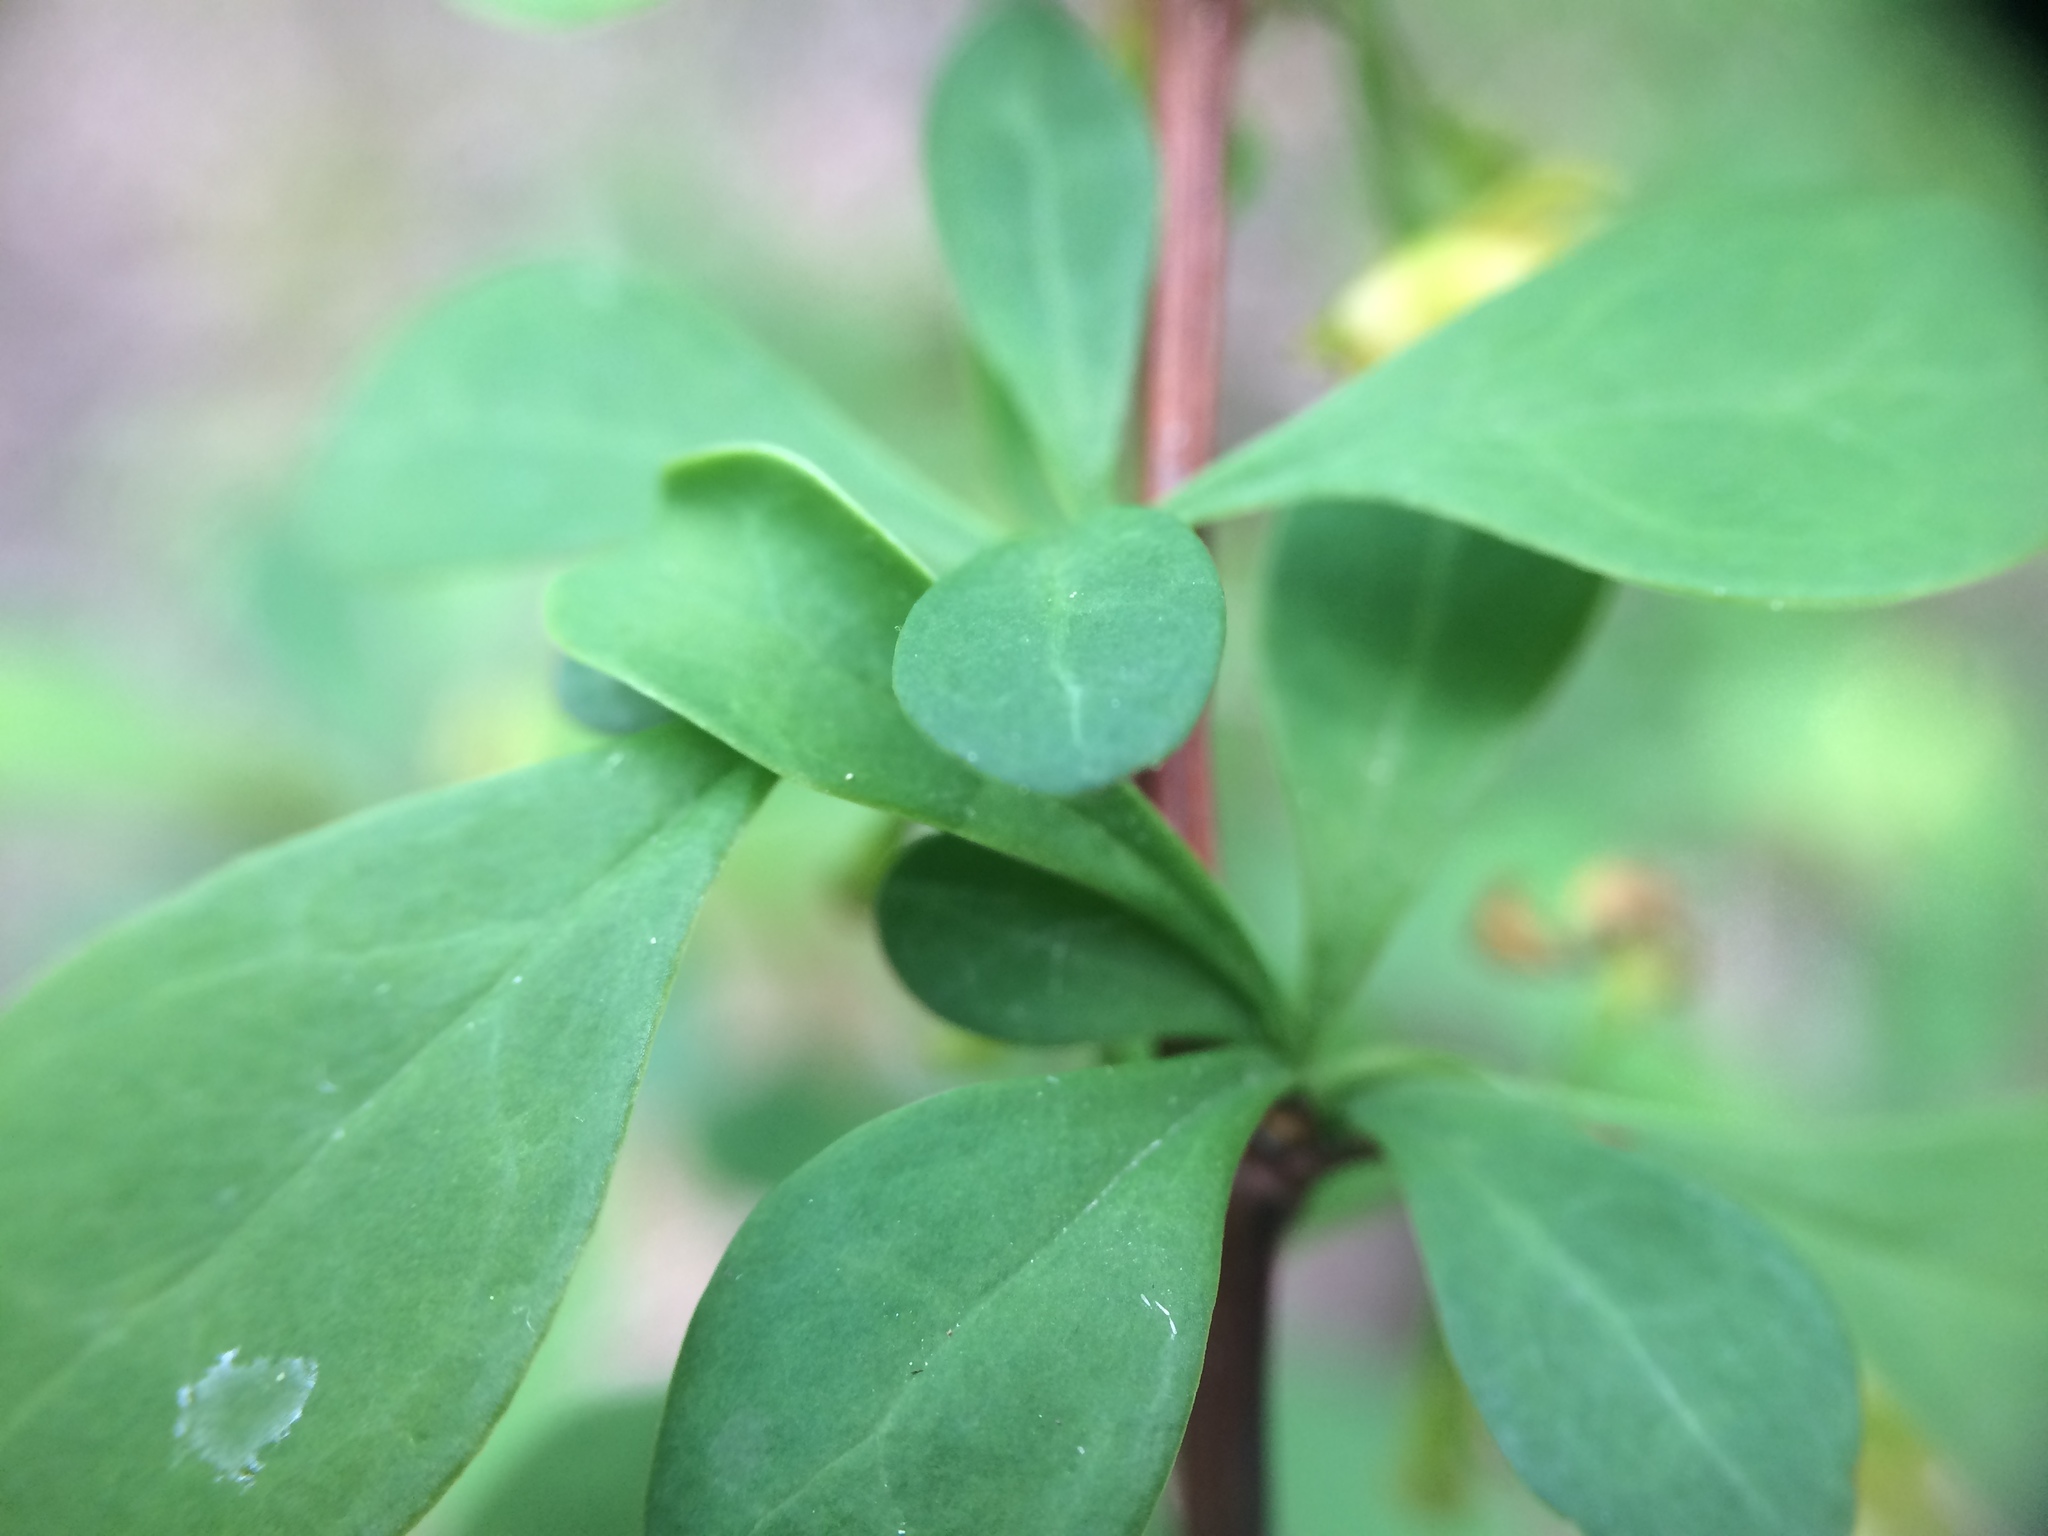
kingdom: Plantae
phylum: Tracheophyta
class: Magnoliopsida
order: Ranunculales
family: Berberidaceae
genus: Berberis
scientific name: Berberis thunbergii
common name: Japanese barberry
